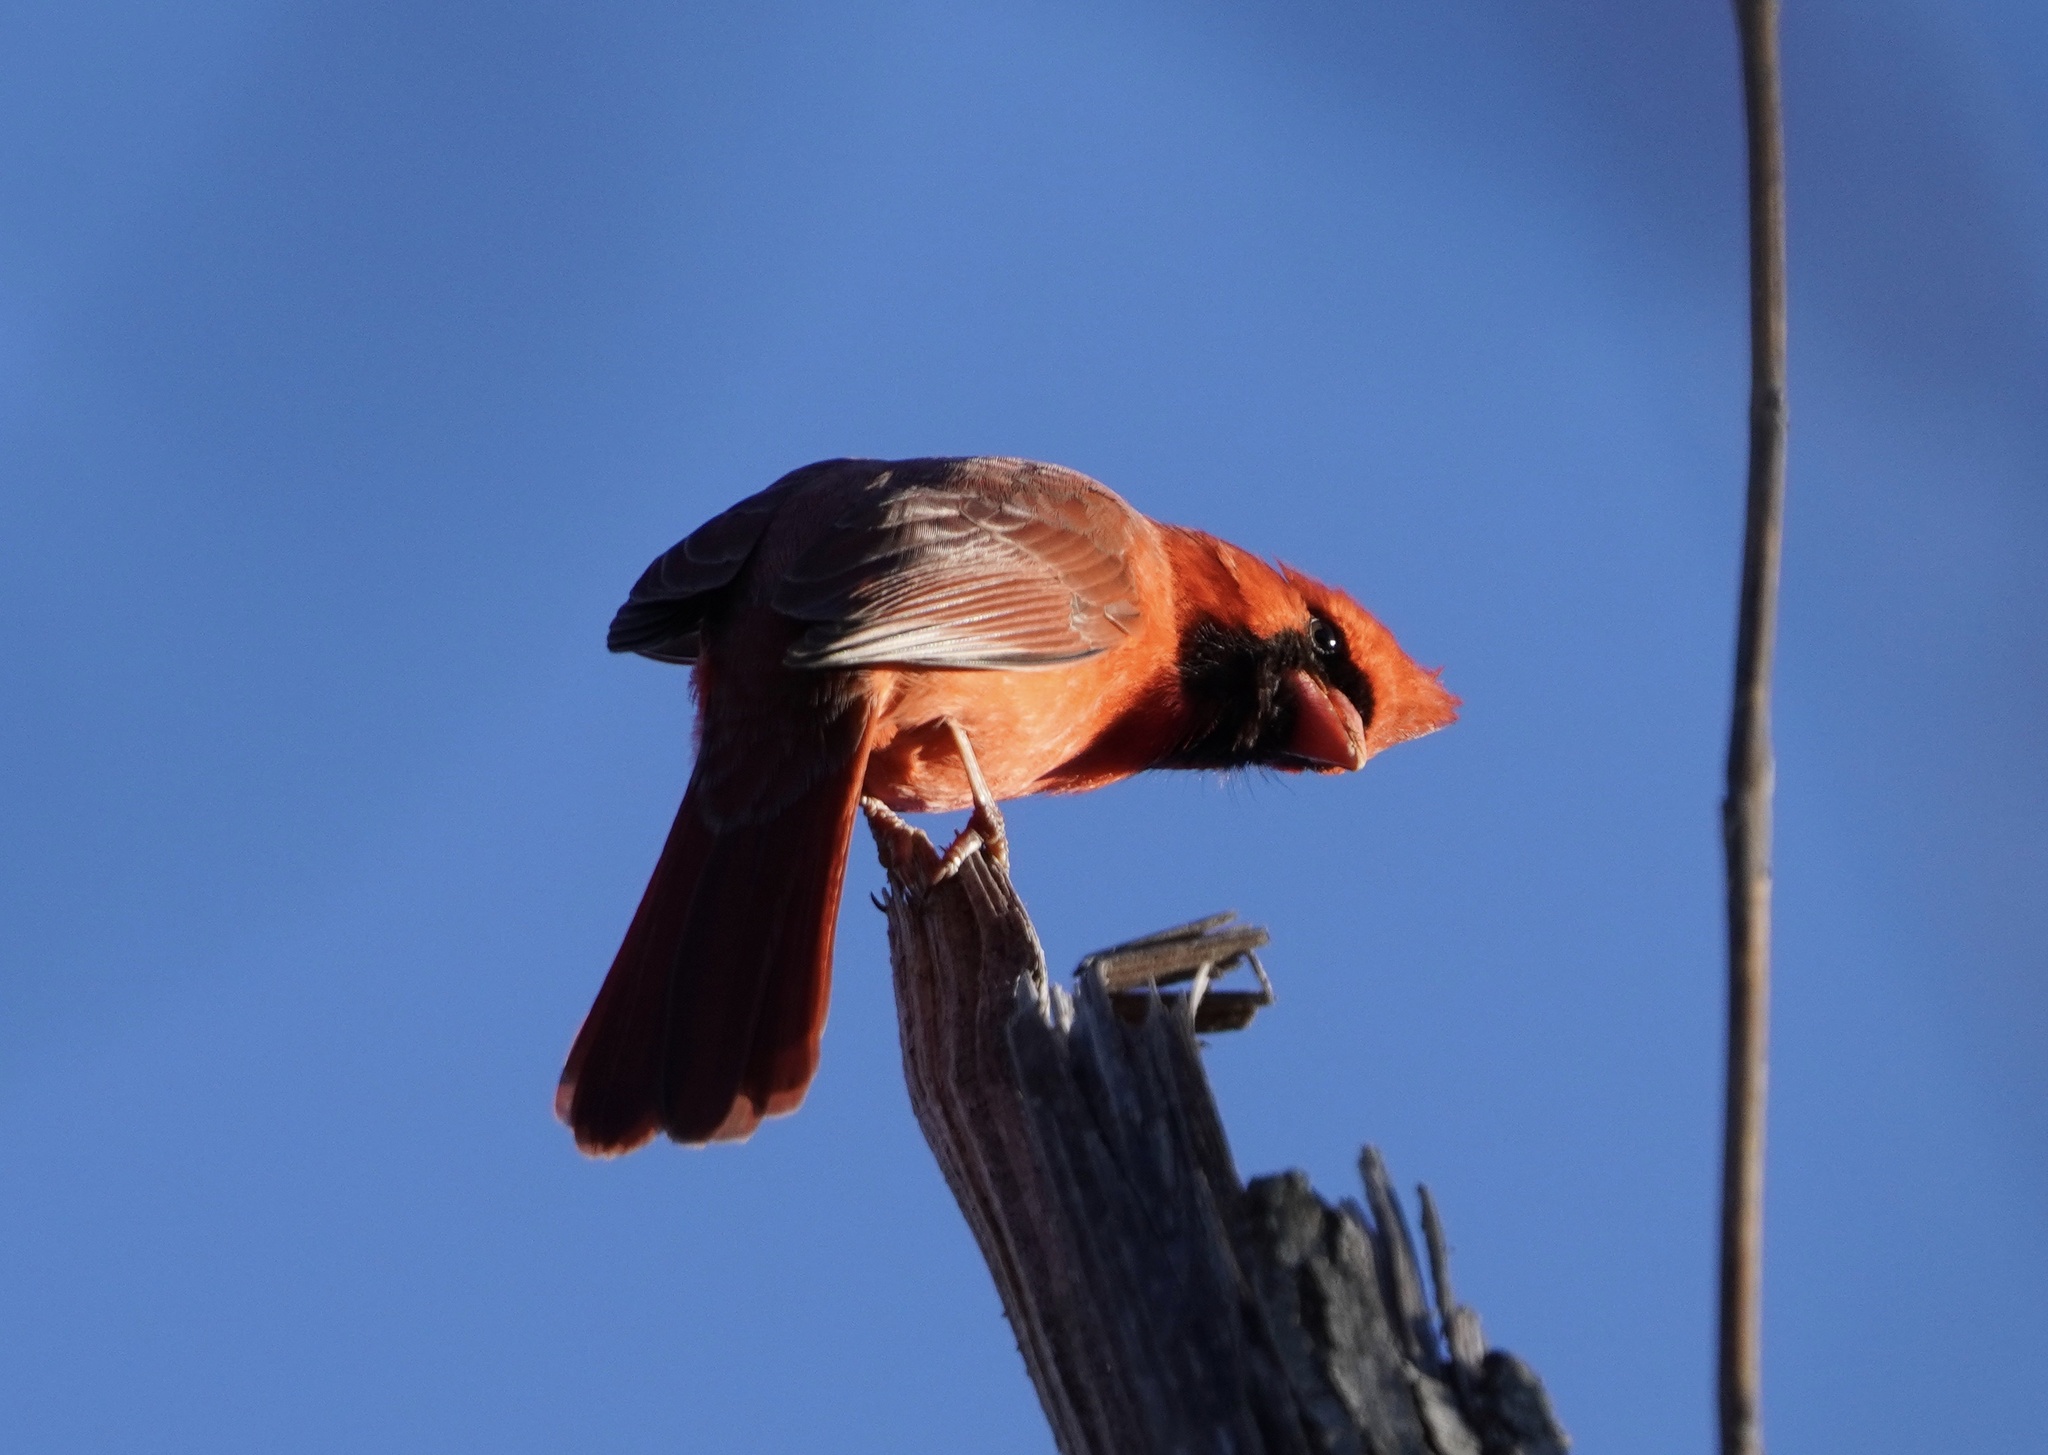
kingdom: Animalia
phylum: Chordata
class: Aves
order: Passeriformes
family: Cardinalidae
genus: Cardinalis
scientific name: Cardinalis cardinalis
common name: Northern cardinal
